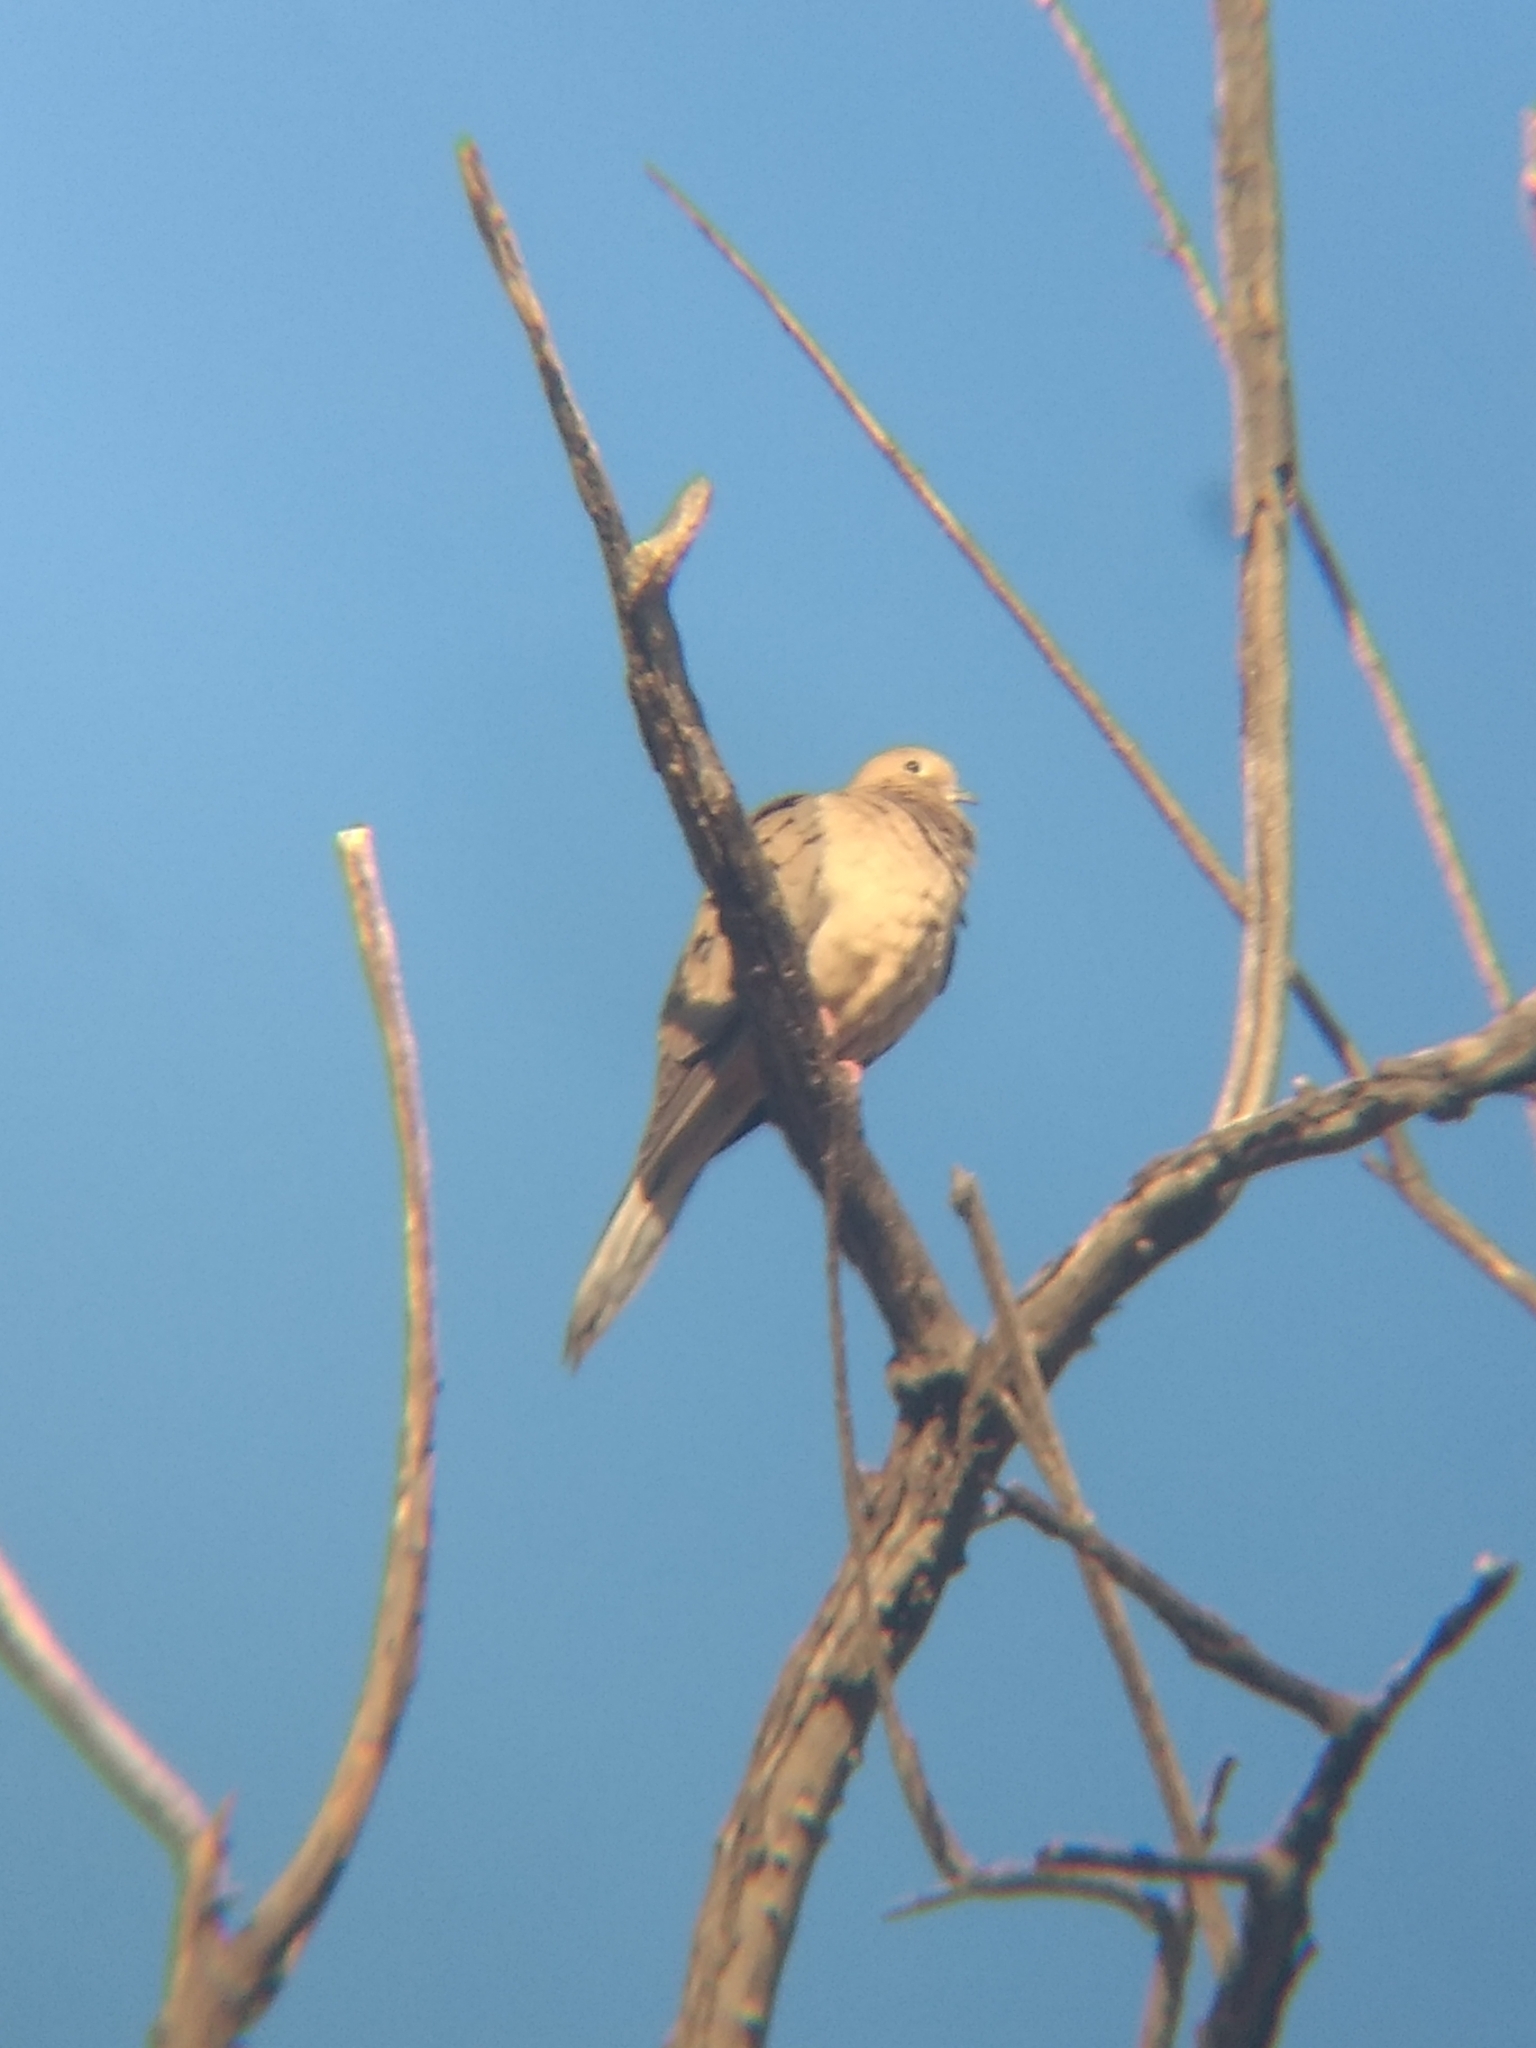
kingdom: Animalia
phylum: Chordata
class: Aves
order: Columbiformes
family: Columbidae
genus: Zenaida
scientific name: Zenaida macroura
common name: Mourning dove
